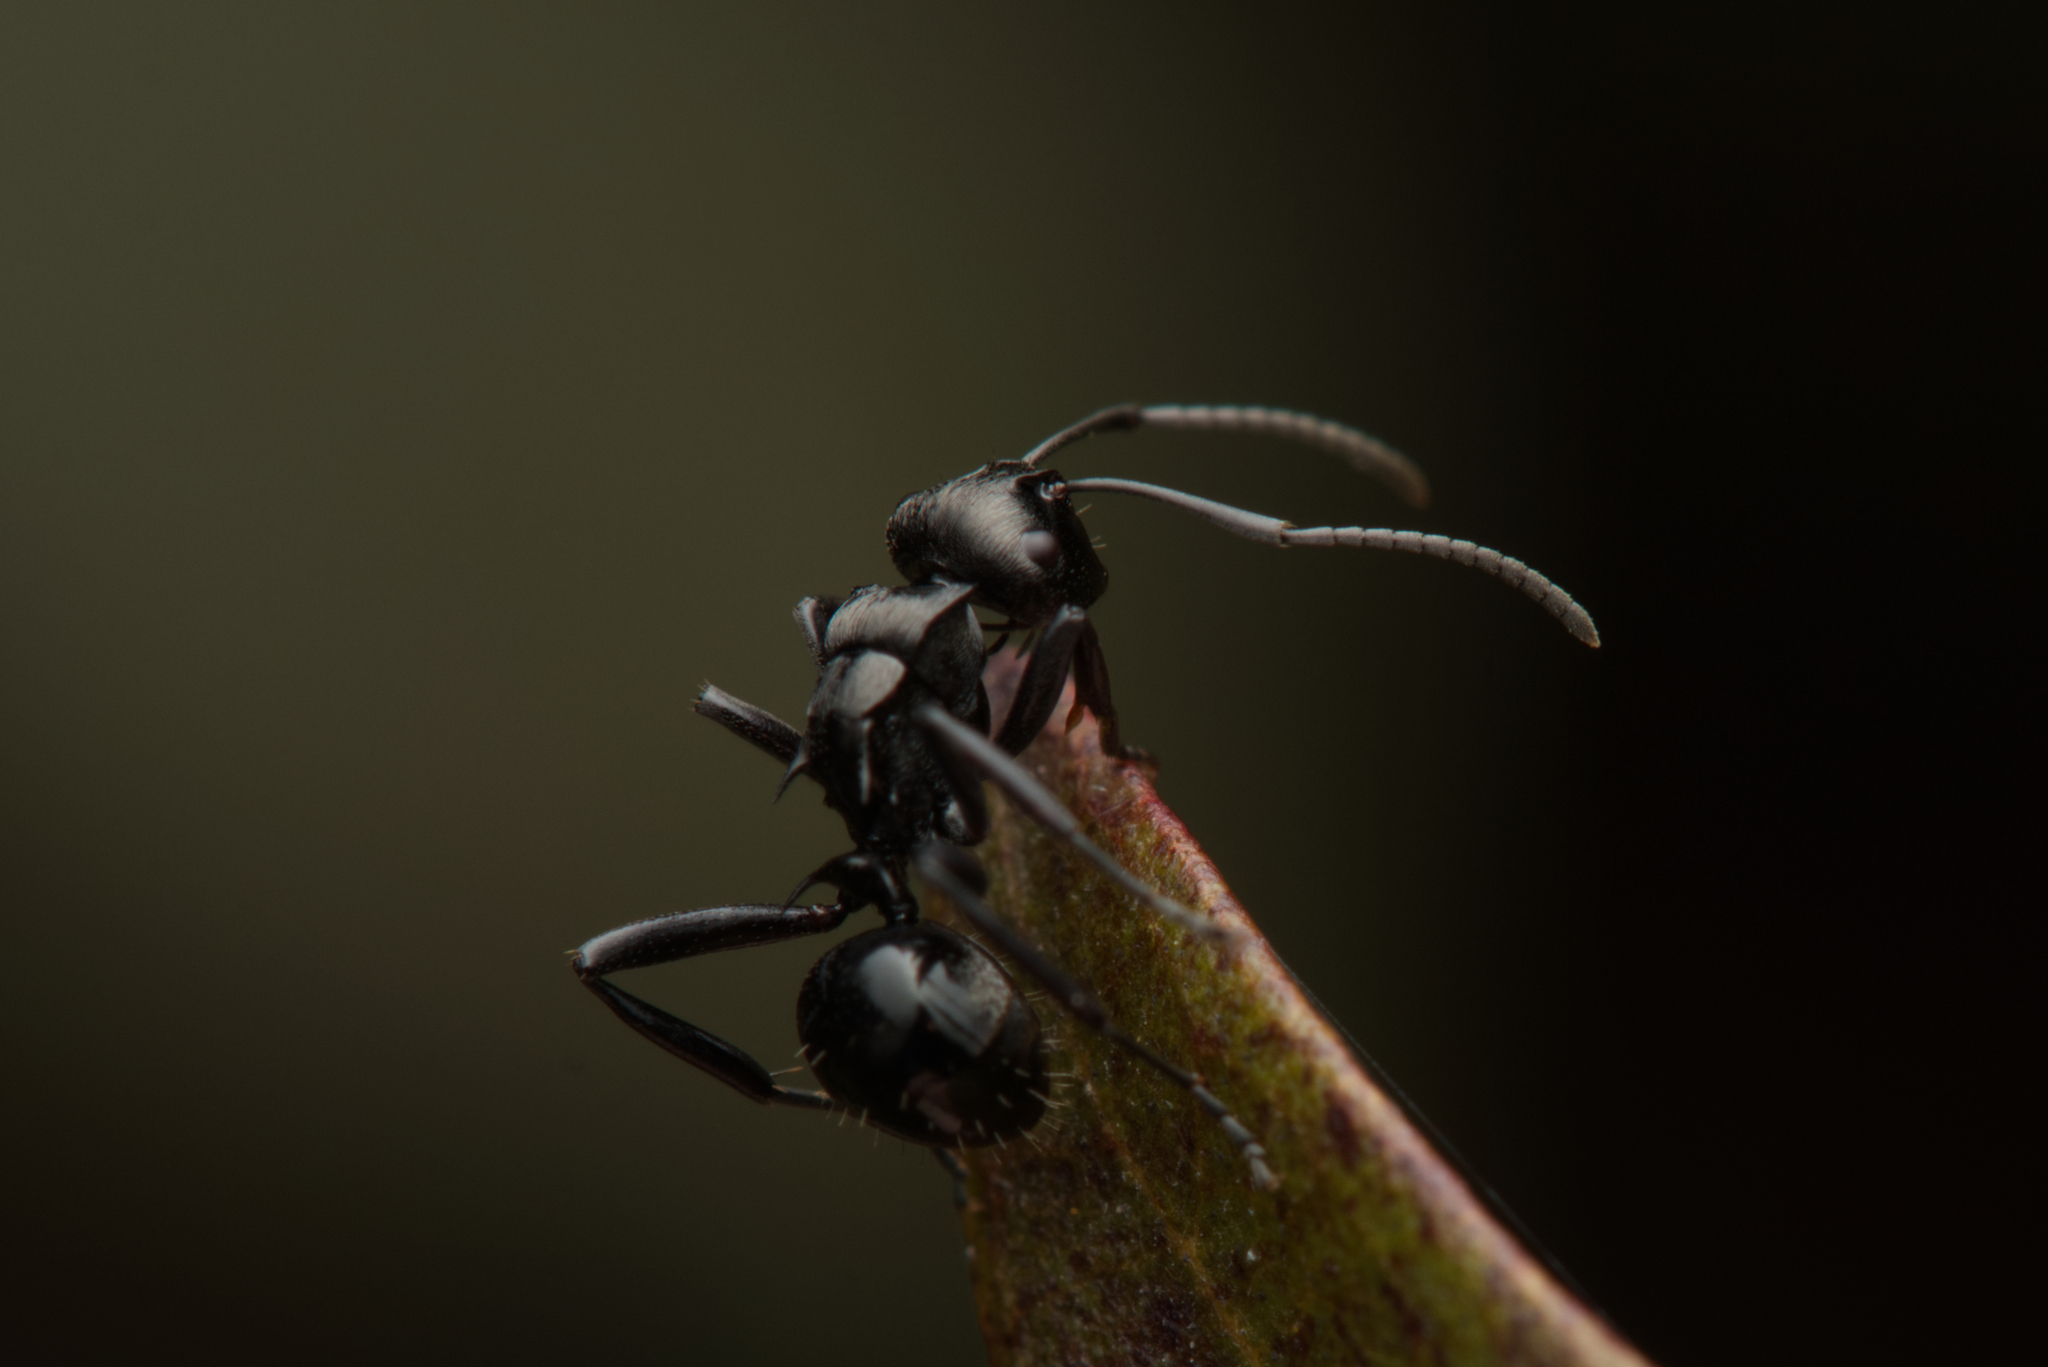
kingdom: Animalia
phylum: Arthropoda
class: Insecta
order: Hymenoptera
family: Formicidae
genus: Polyrhachis
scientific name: Polyrhachis clio
